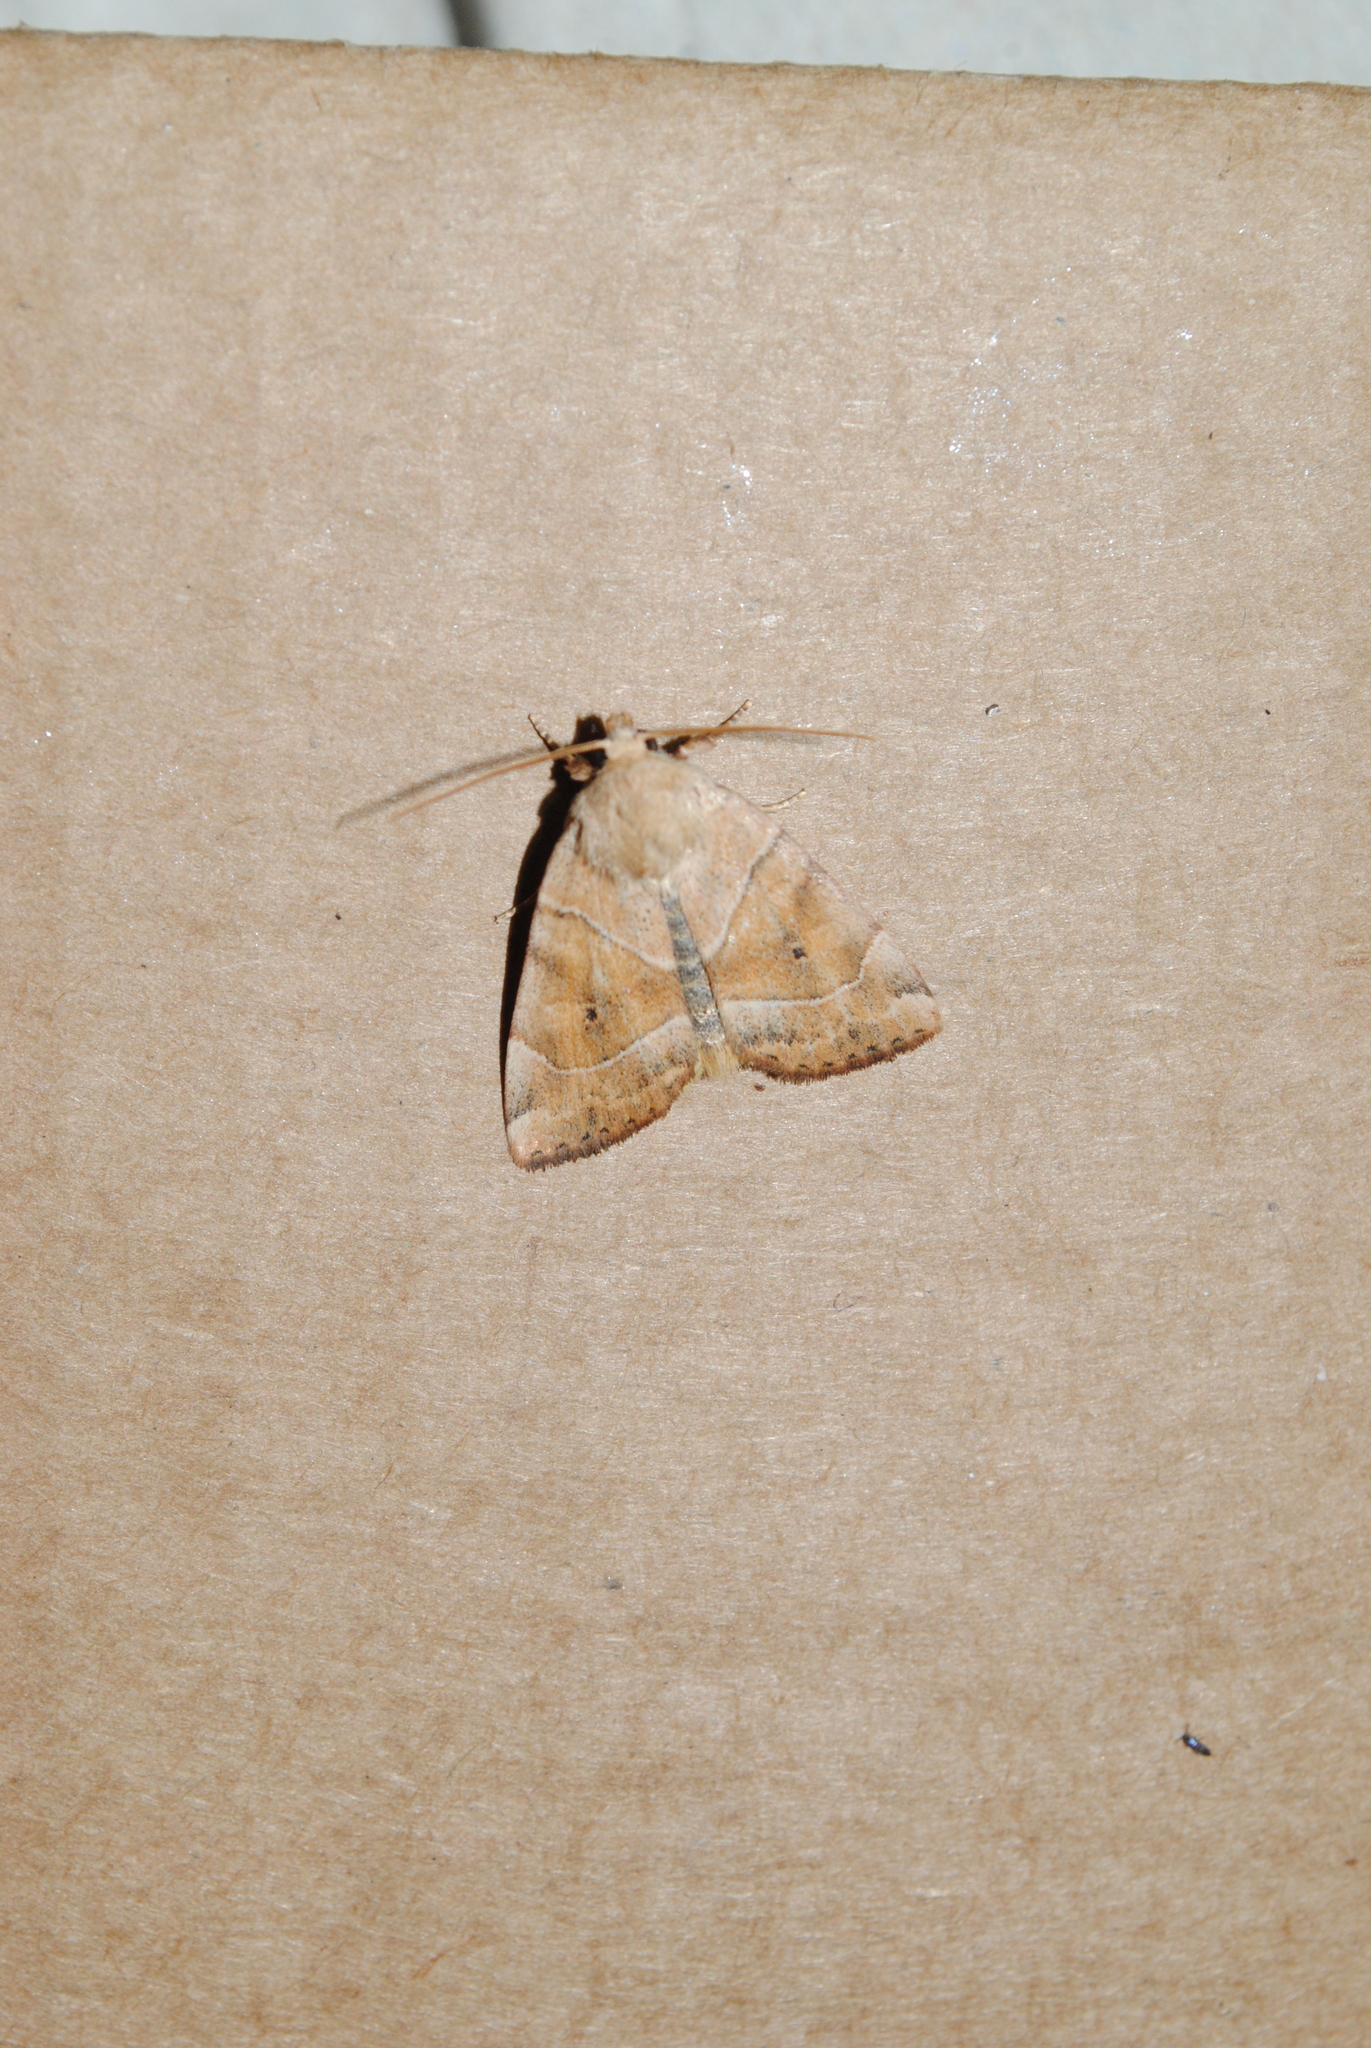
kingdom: Animalia
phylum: Arthropoda
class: Insecta
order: Lepidoptera
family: Noctuidae
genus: Cosmia
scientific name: Cosmia trapezina
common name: Dun-bar
